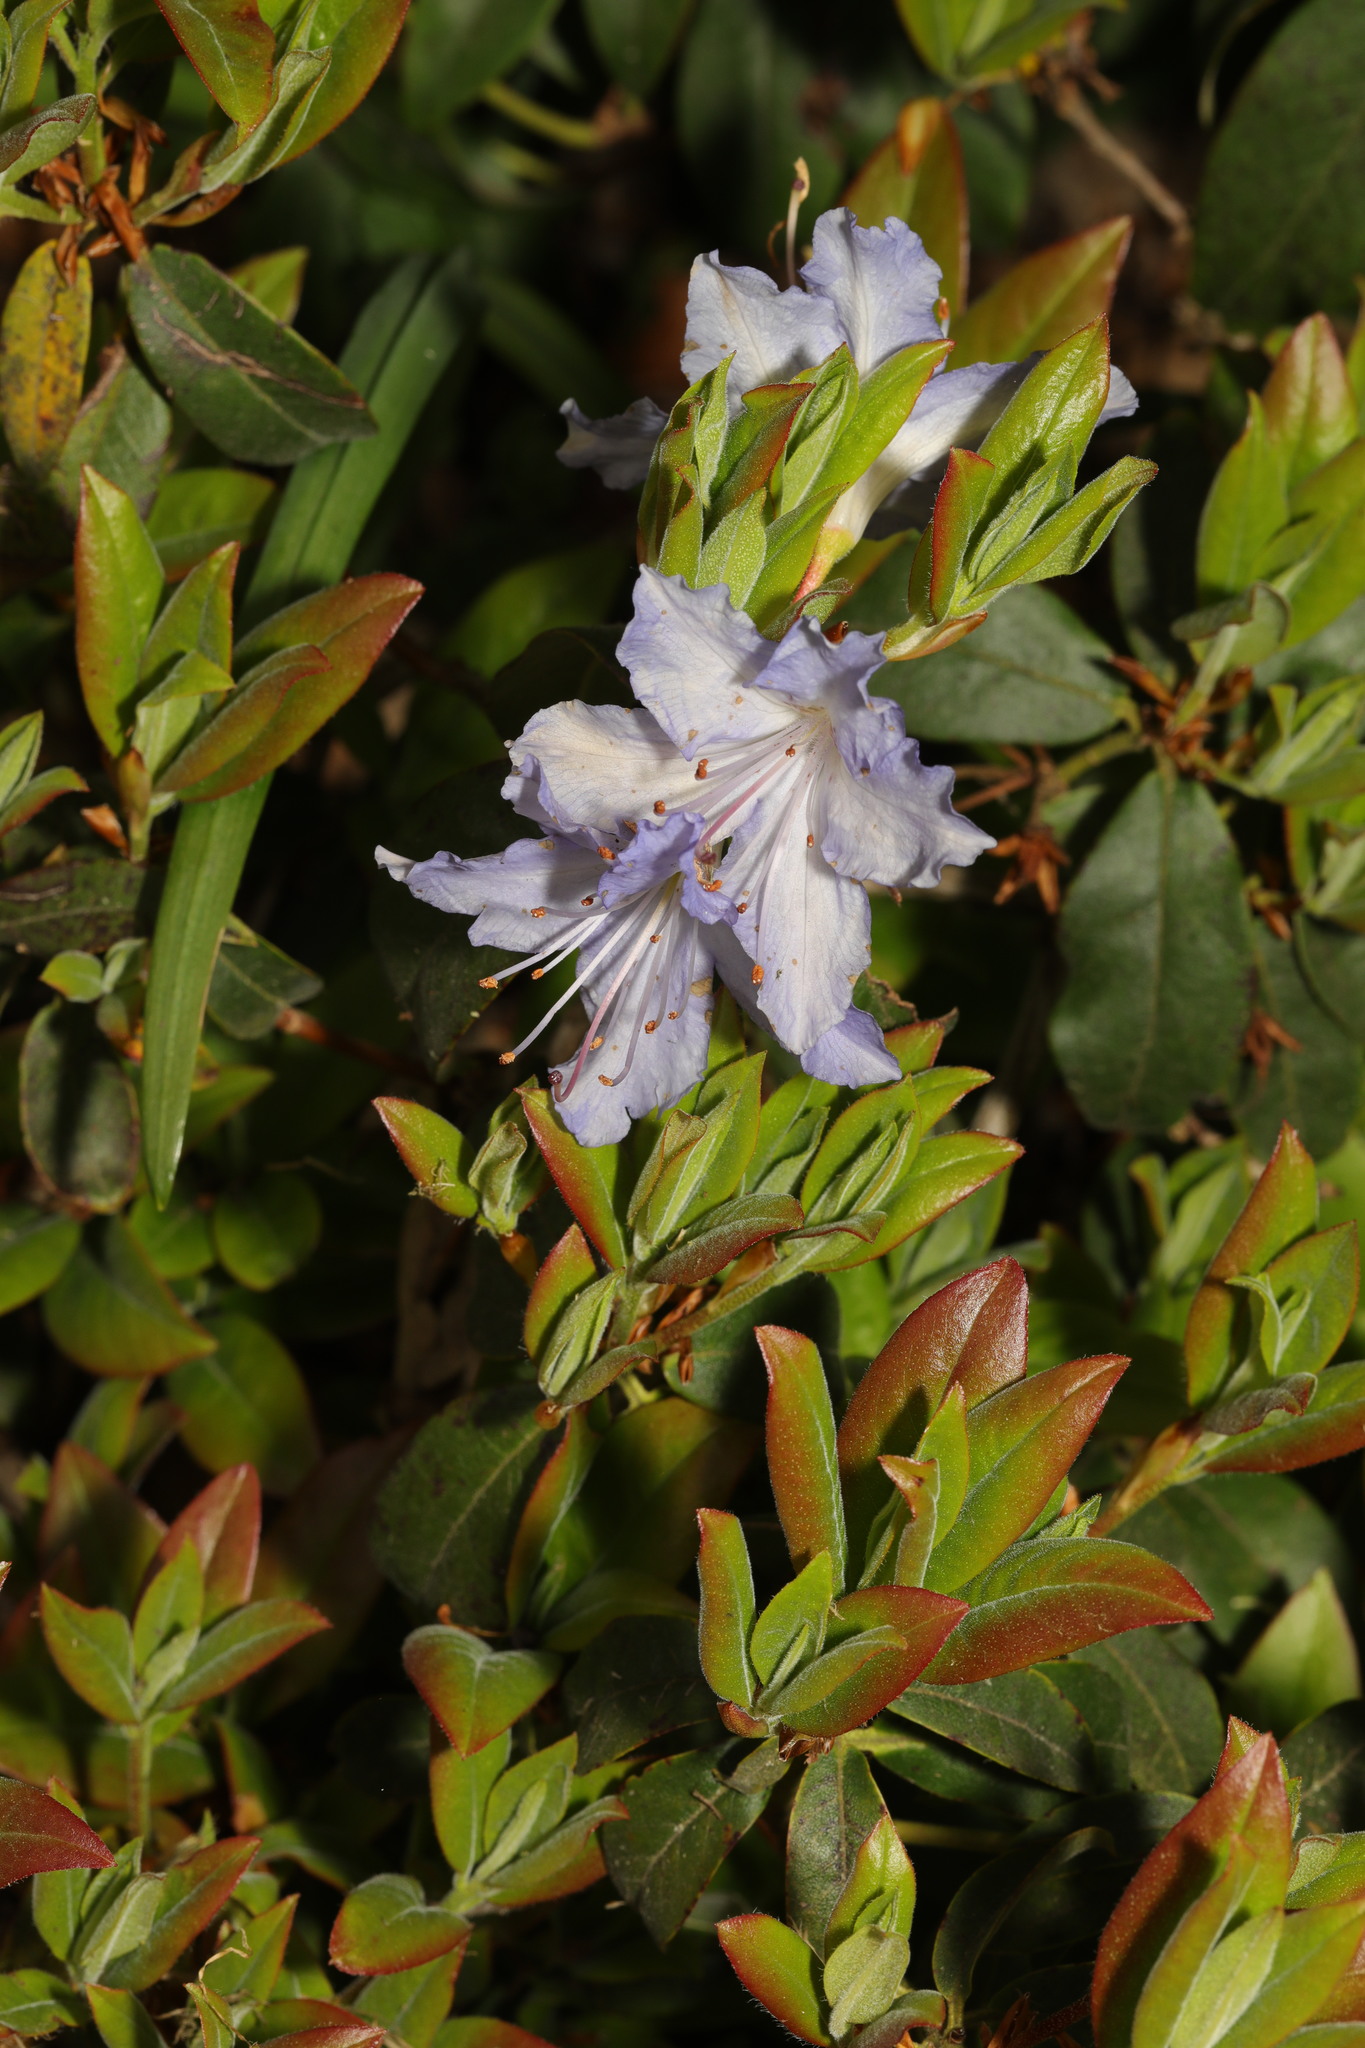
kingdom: Plantae
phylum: Tracheophyta
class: Magnoliopsida
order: Ericales
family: Ericaceae
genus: Rhododendron
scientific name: Rhododendron
